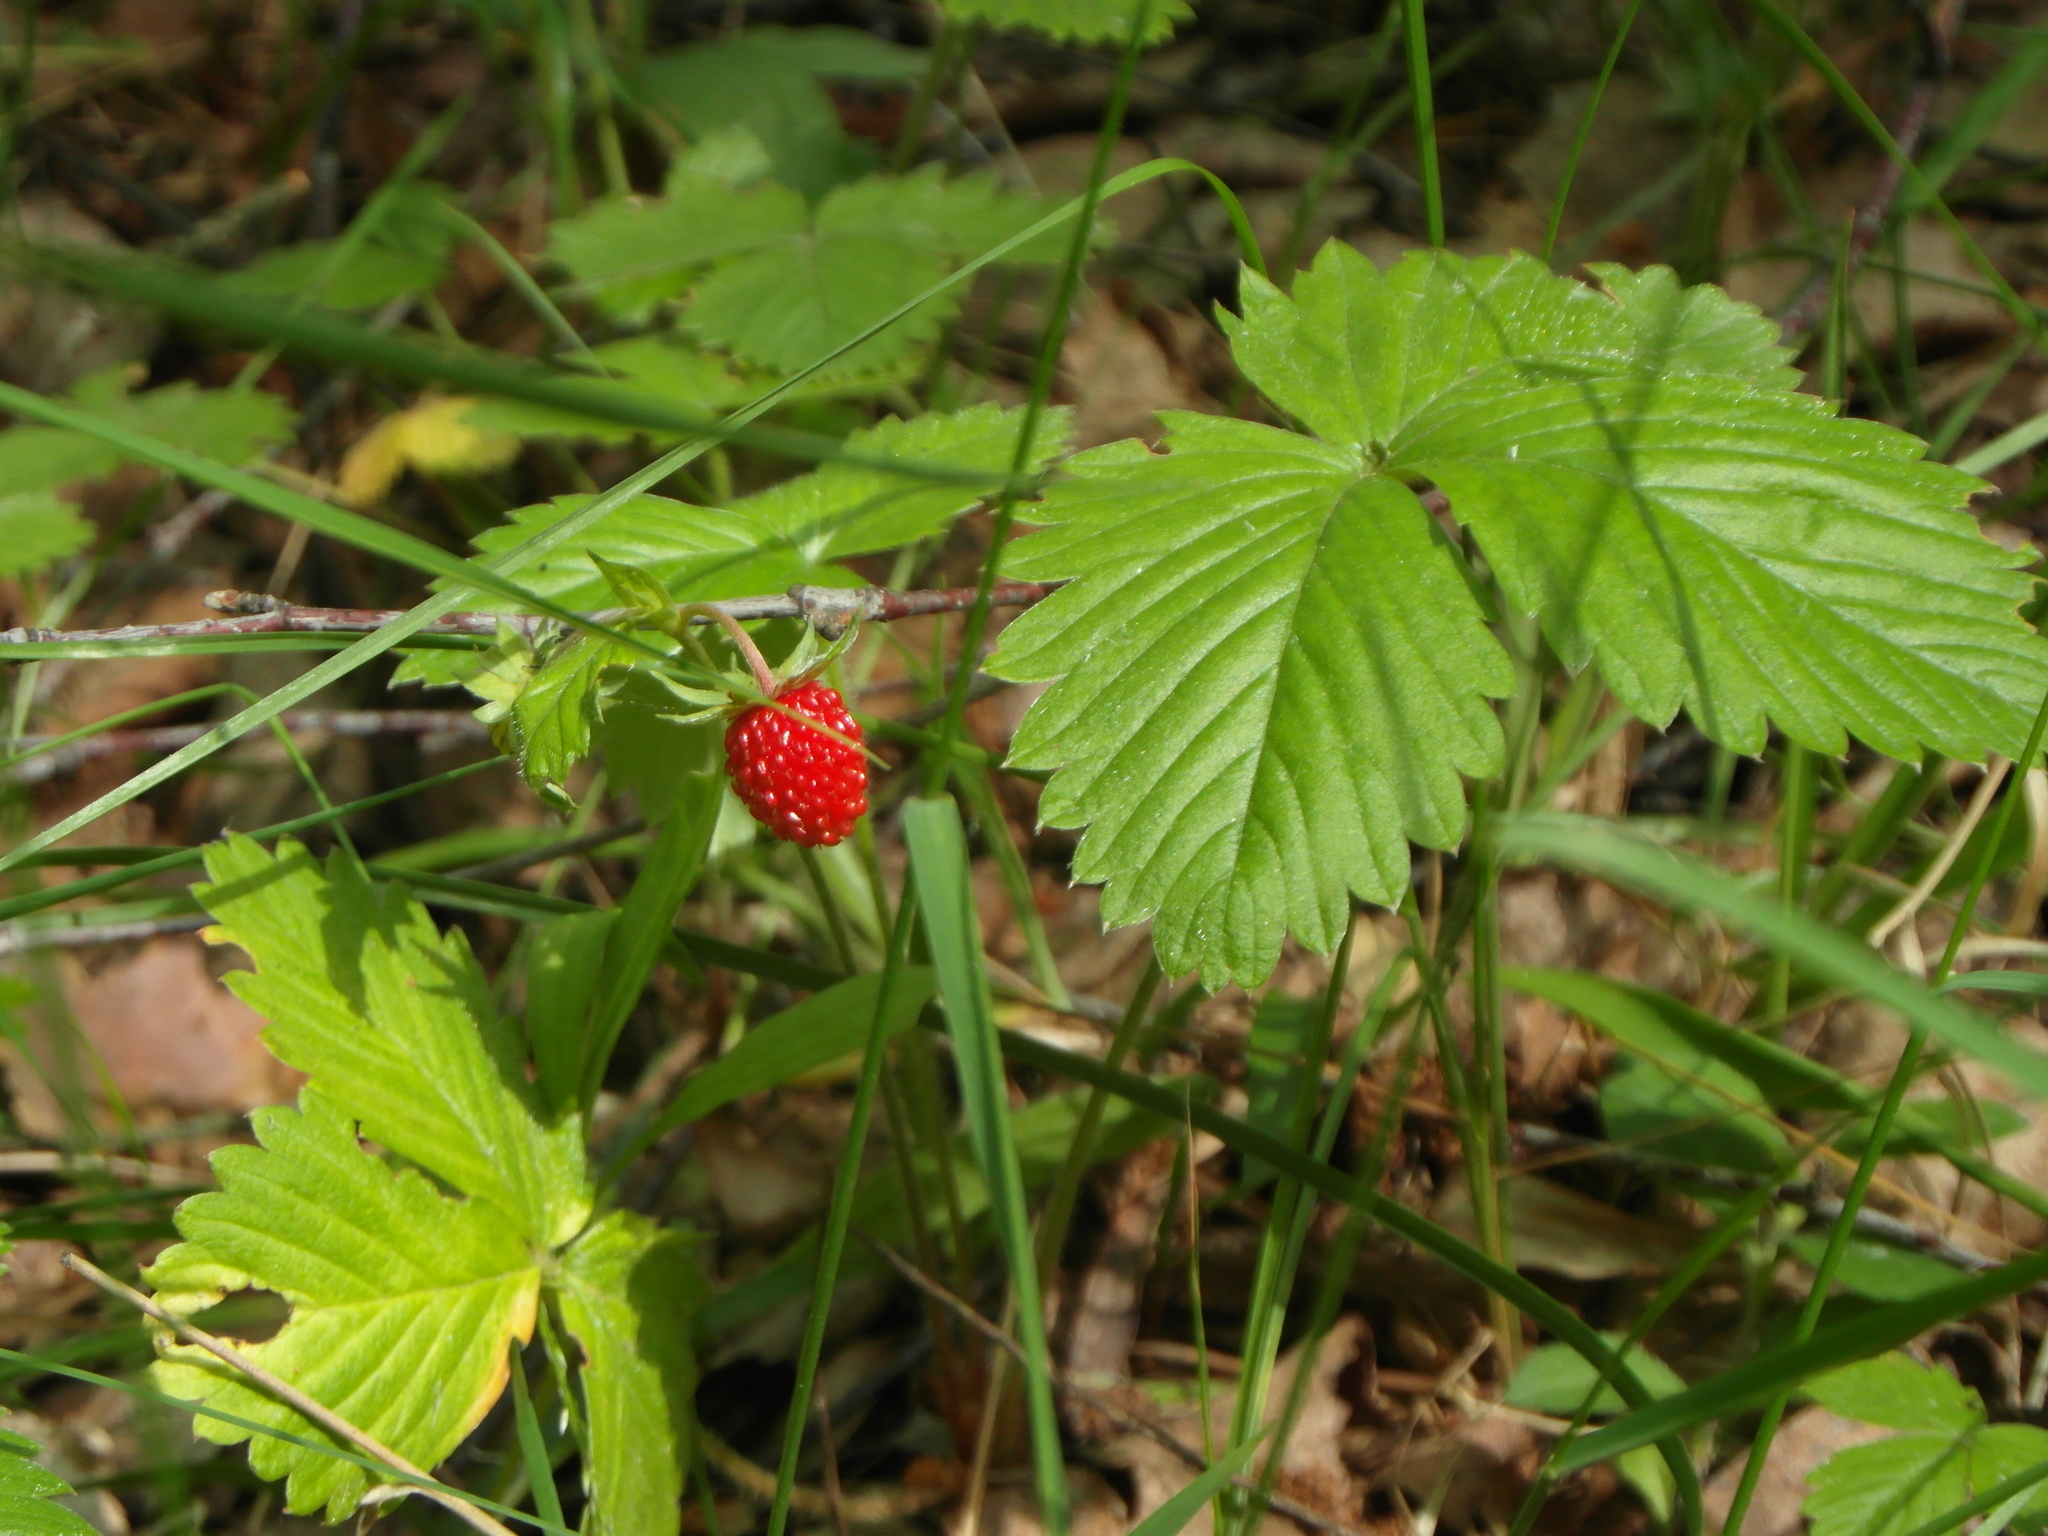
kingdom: Plantae
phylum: Tracheophyta
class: Magnoliopsida
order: Rosales
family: Rosaceae
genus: Fragaria
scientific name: Fragaria vesca
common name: Wild strawberry
